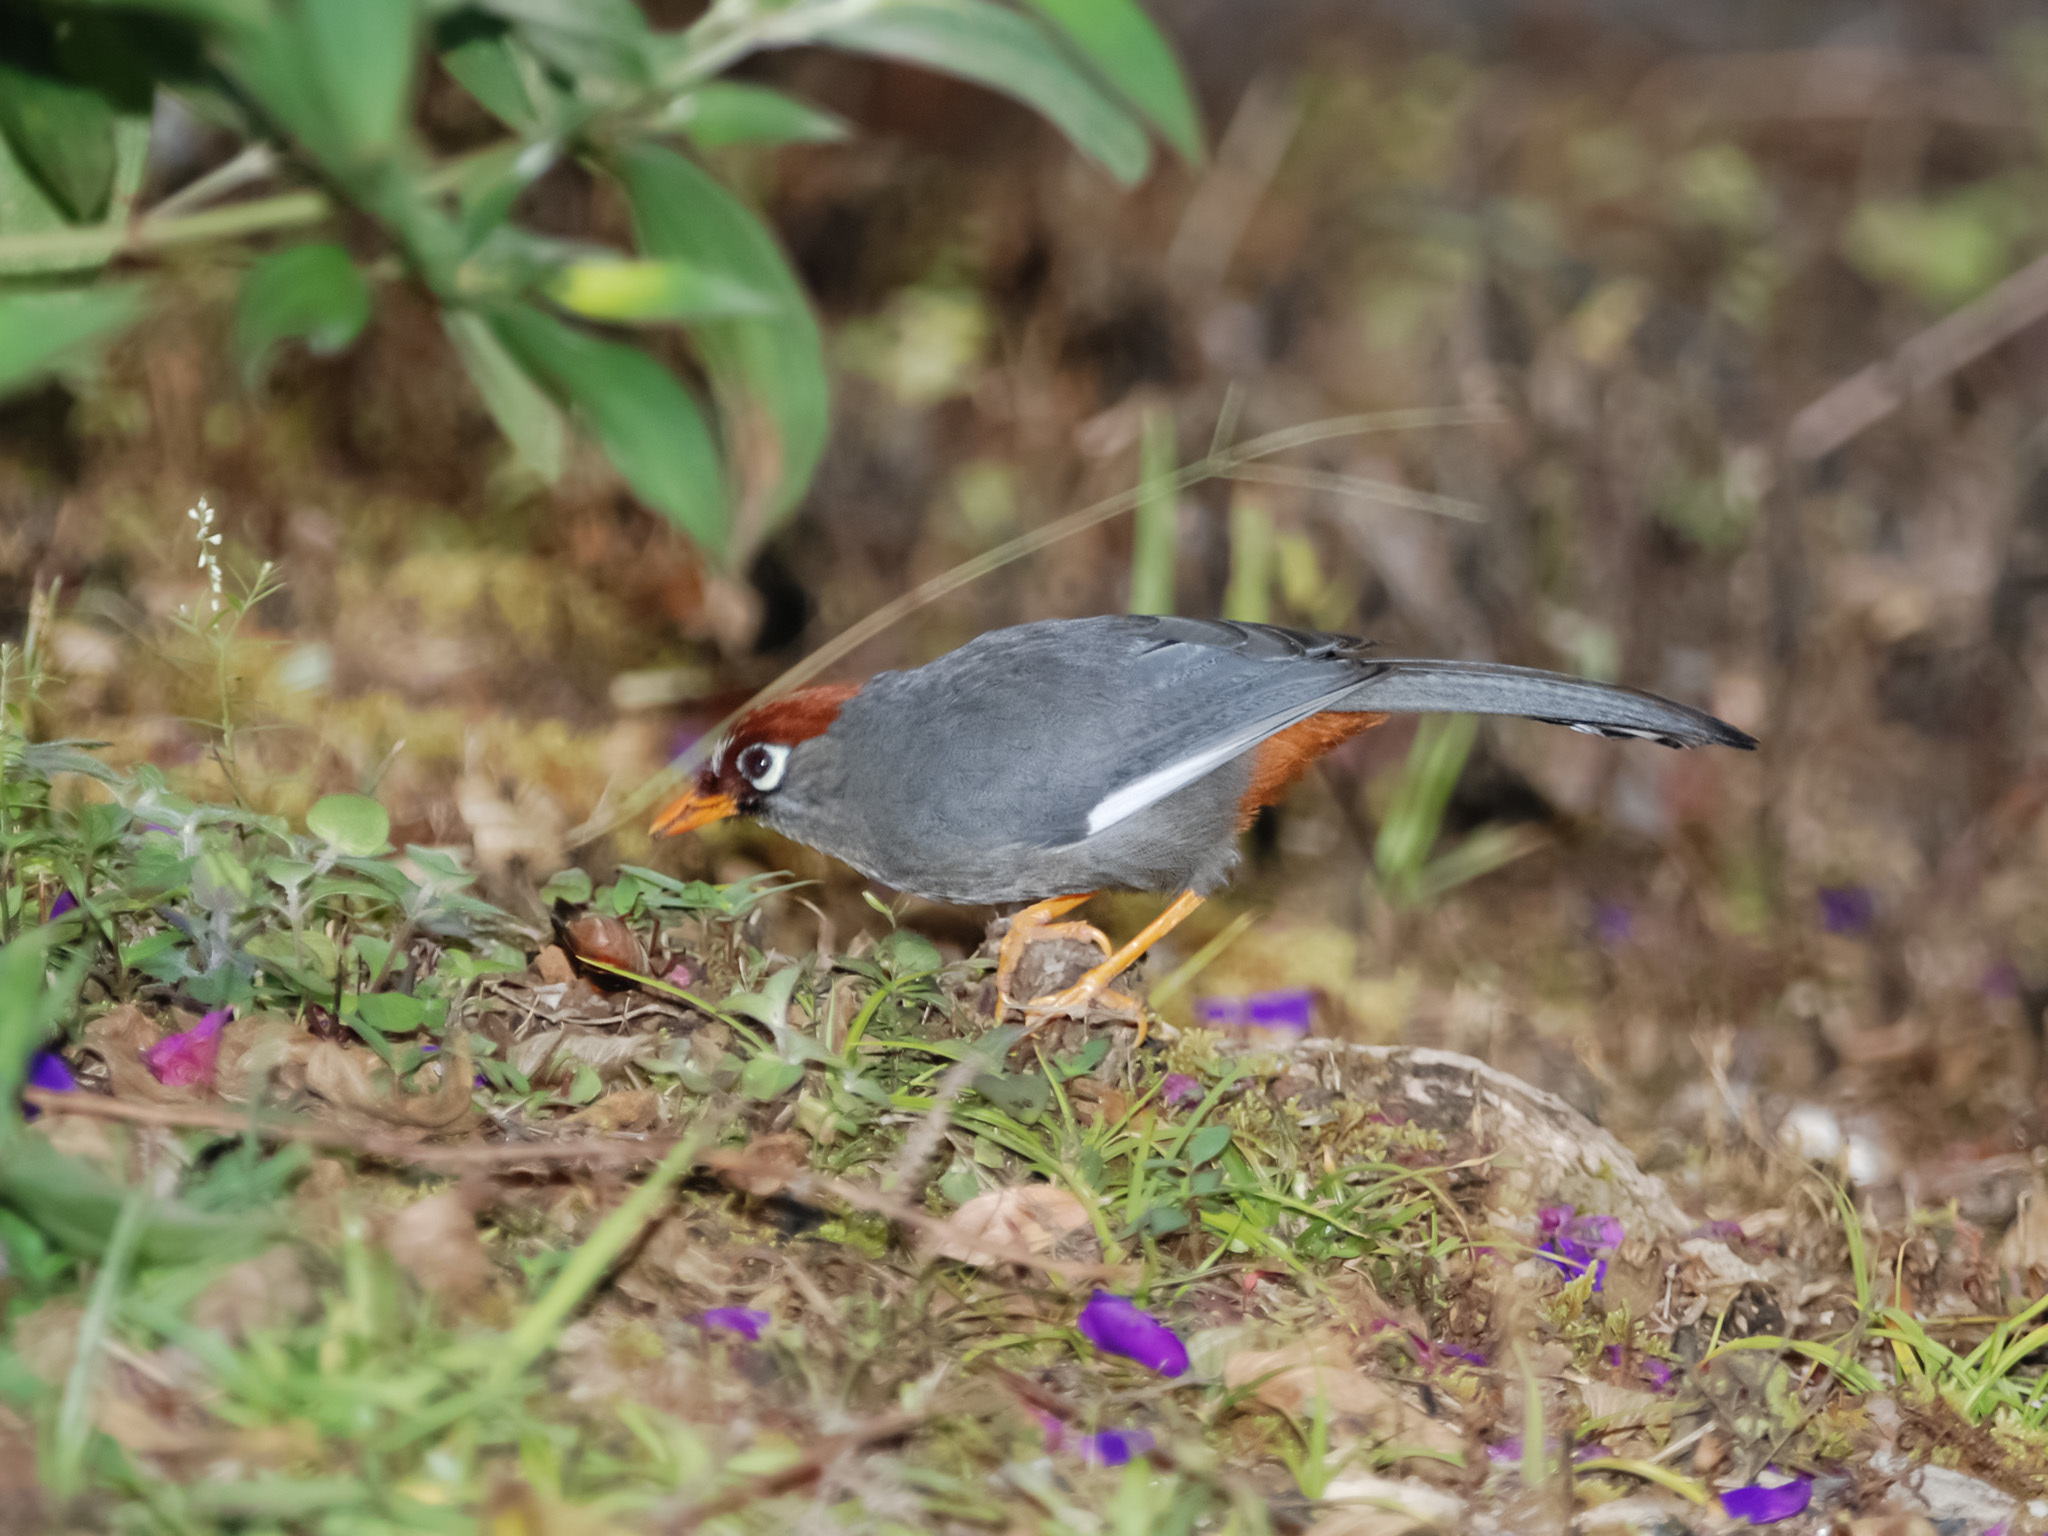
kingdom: Animalia
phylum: Chordata
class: Aves
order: Passeriformes
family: Leiothrichidae
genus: Garrulax
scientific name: Garrulax mitratus
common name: Chestnut-capped laughingthrush
